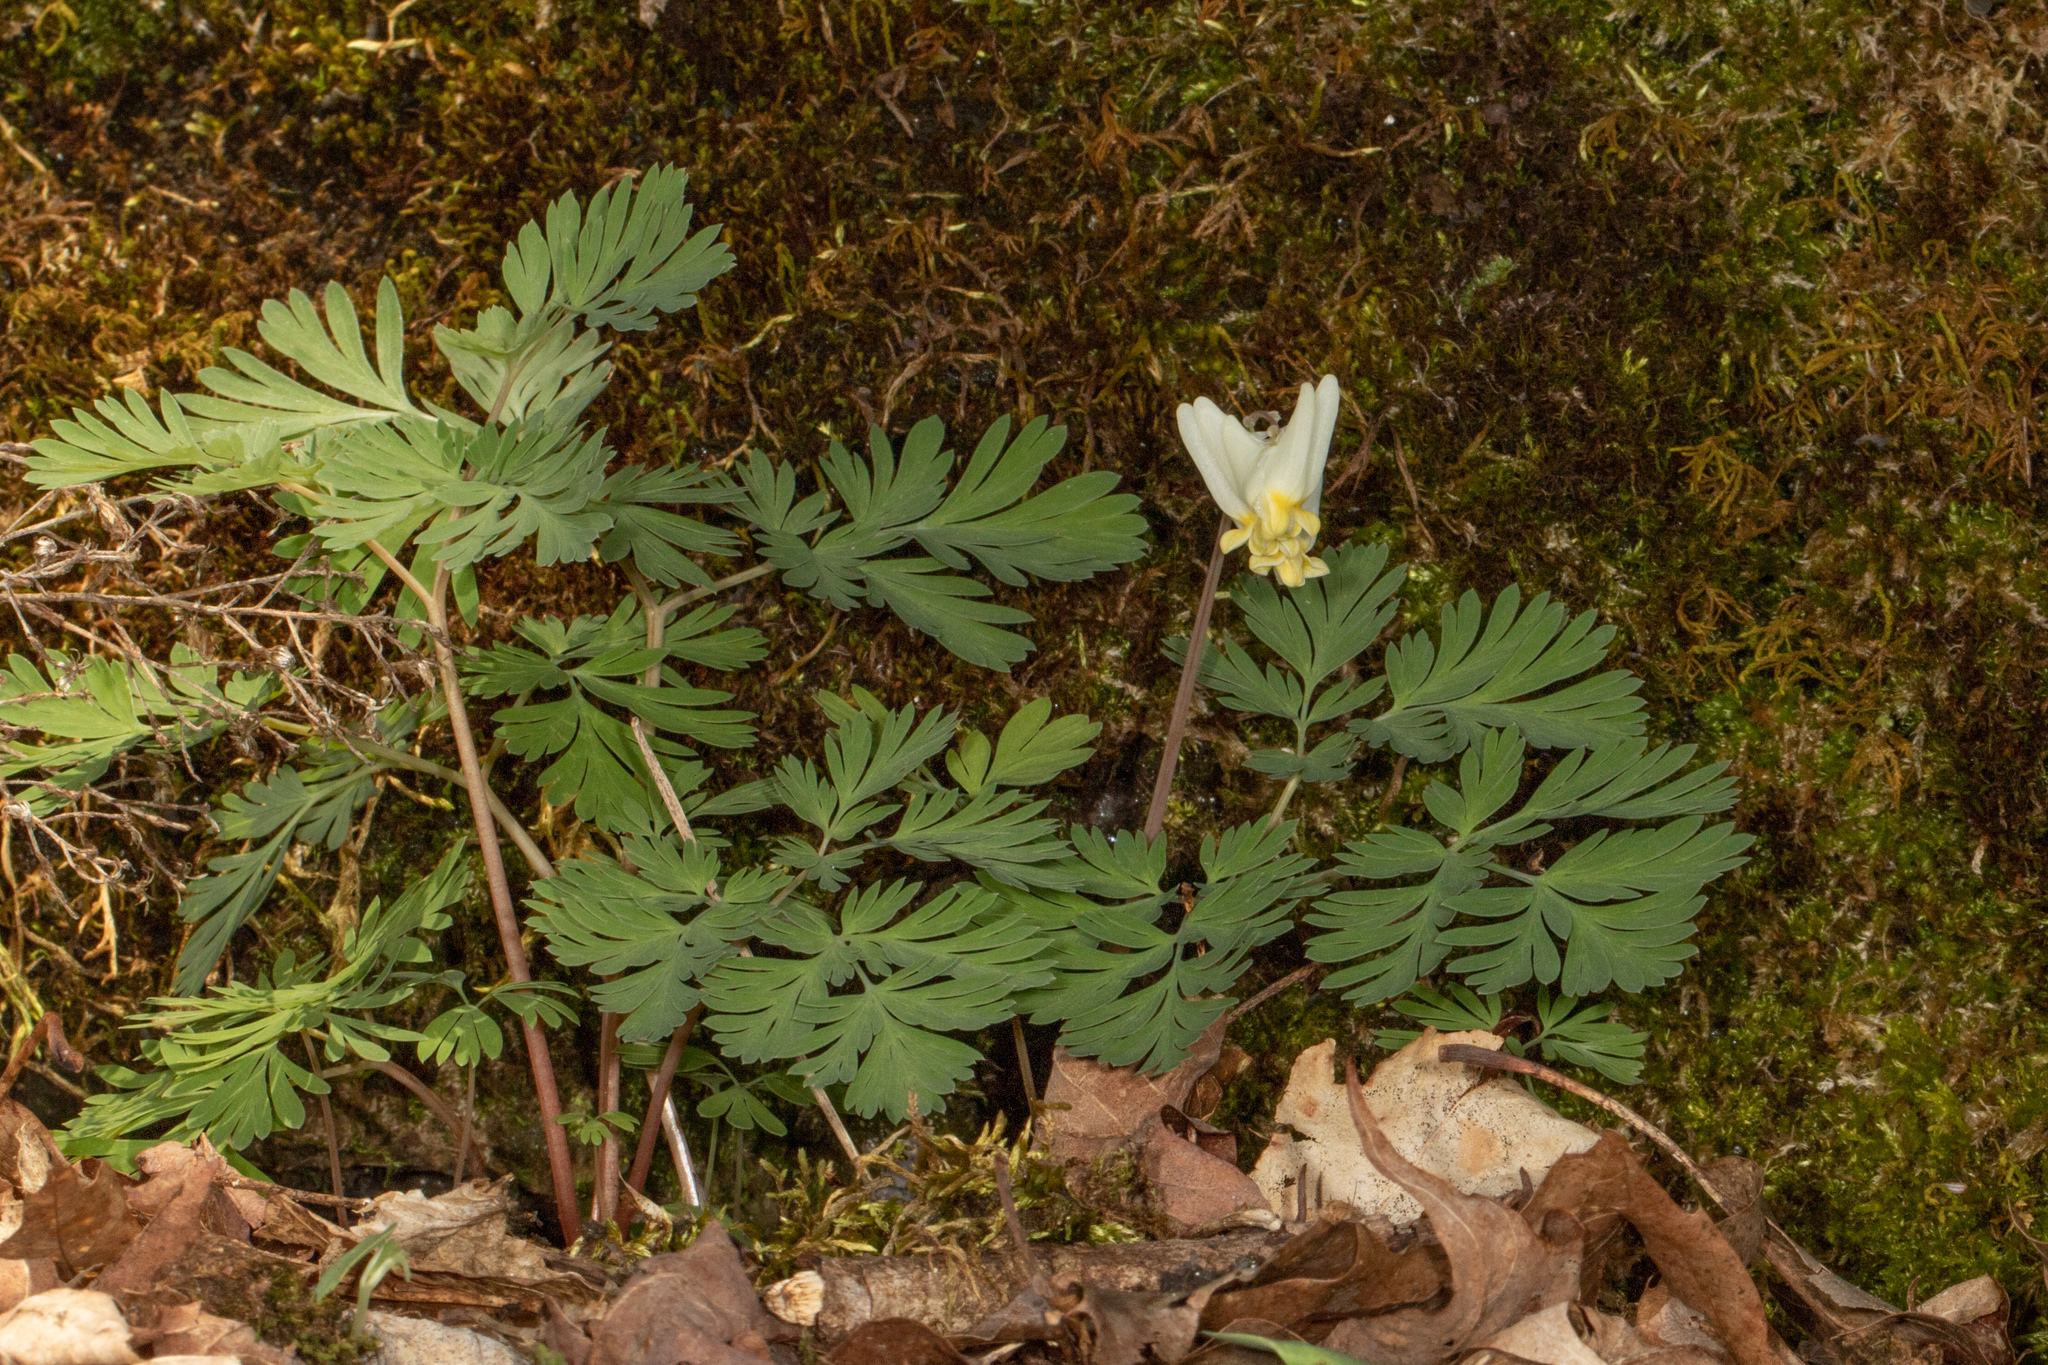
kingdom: Plantae
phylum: Tracheophyta
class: Magnoliopsida
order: Ranunculales
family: Papaveraceae
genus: Dicentra
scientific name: Dicentra cucullaria
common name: Dutchman's breeches
